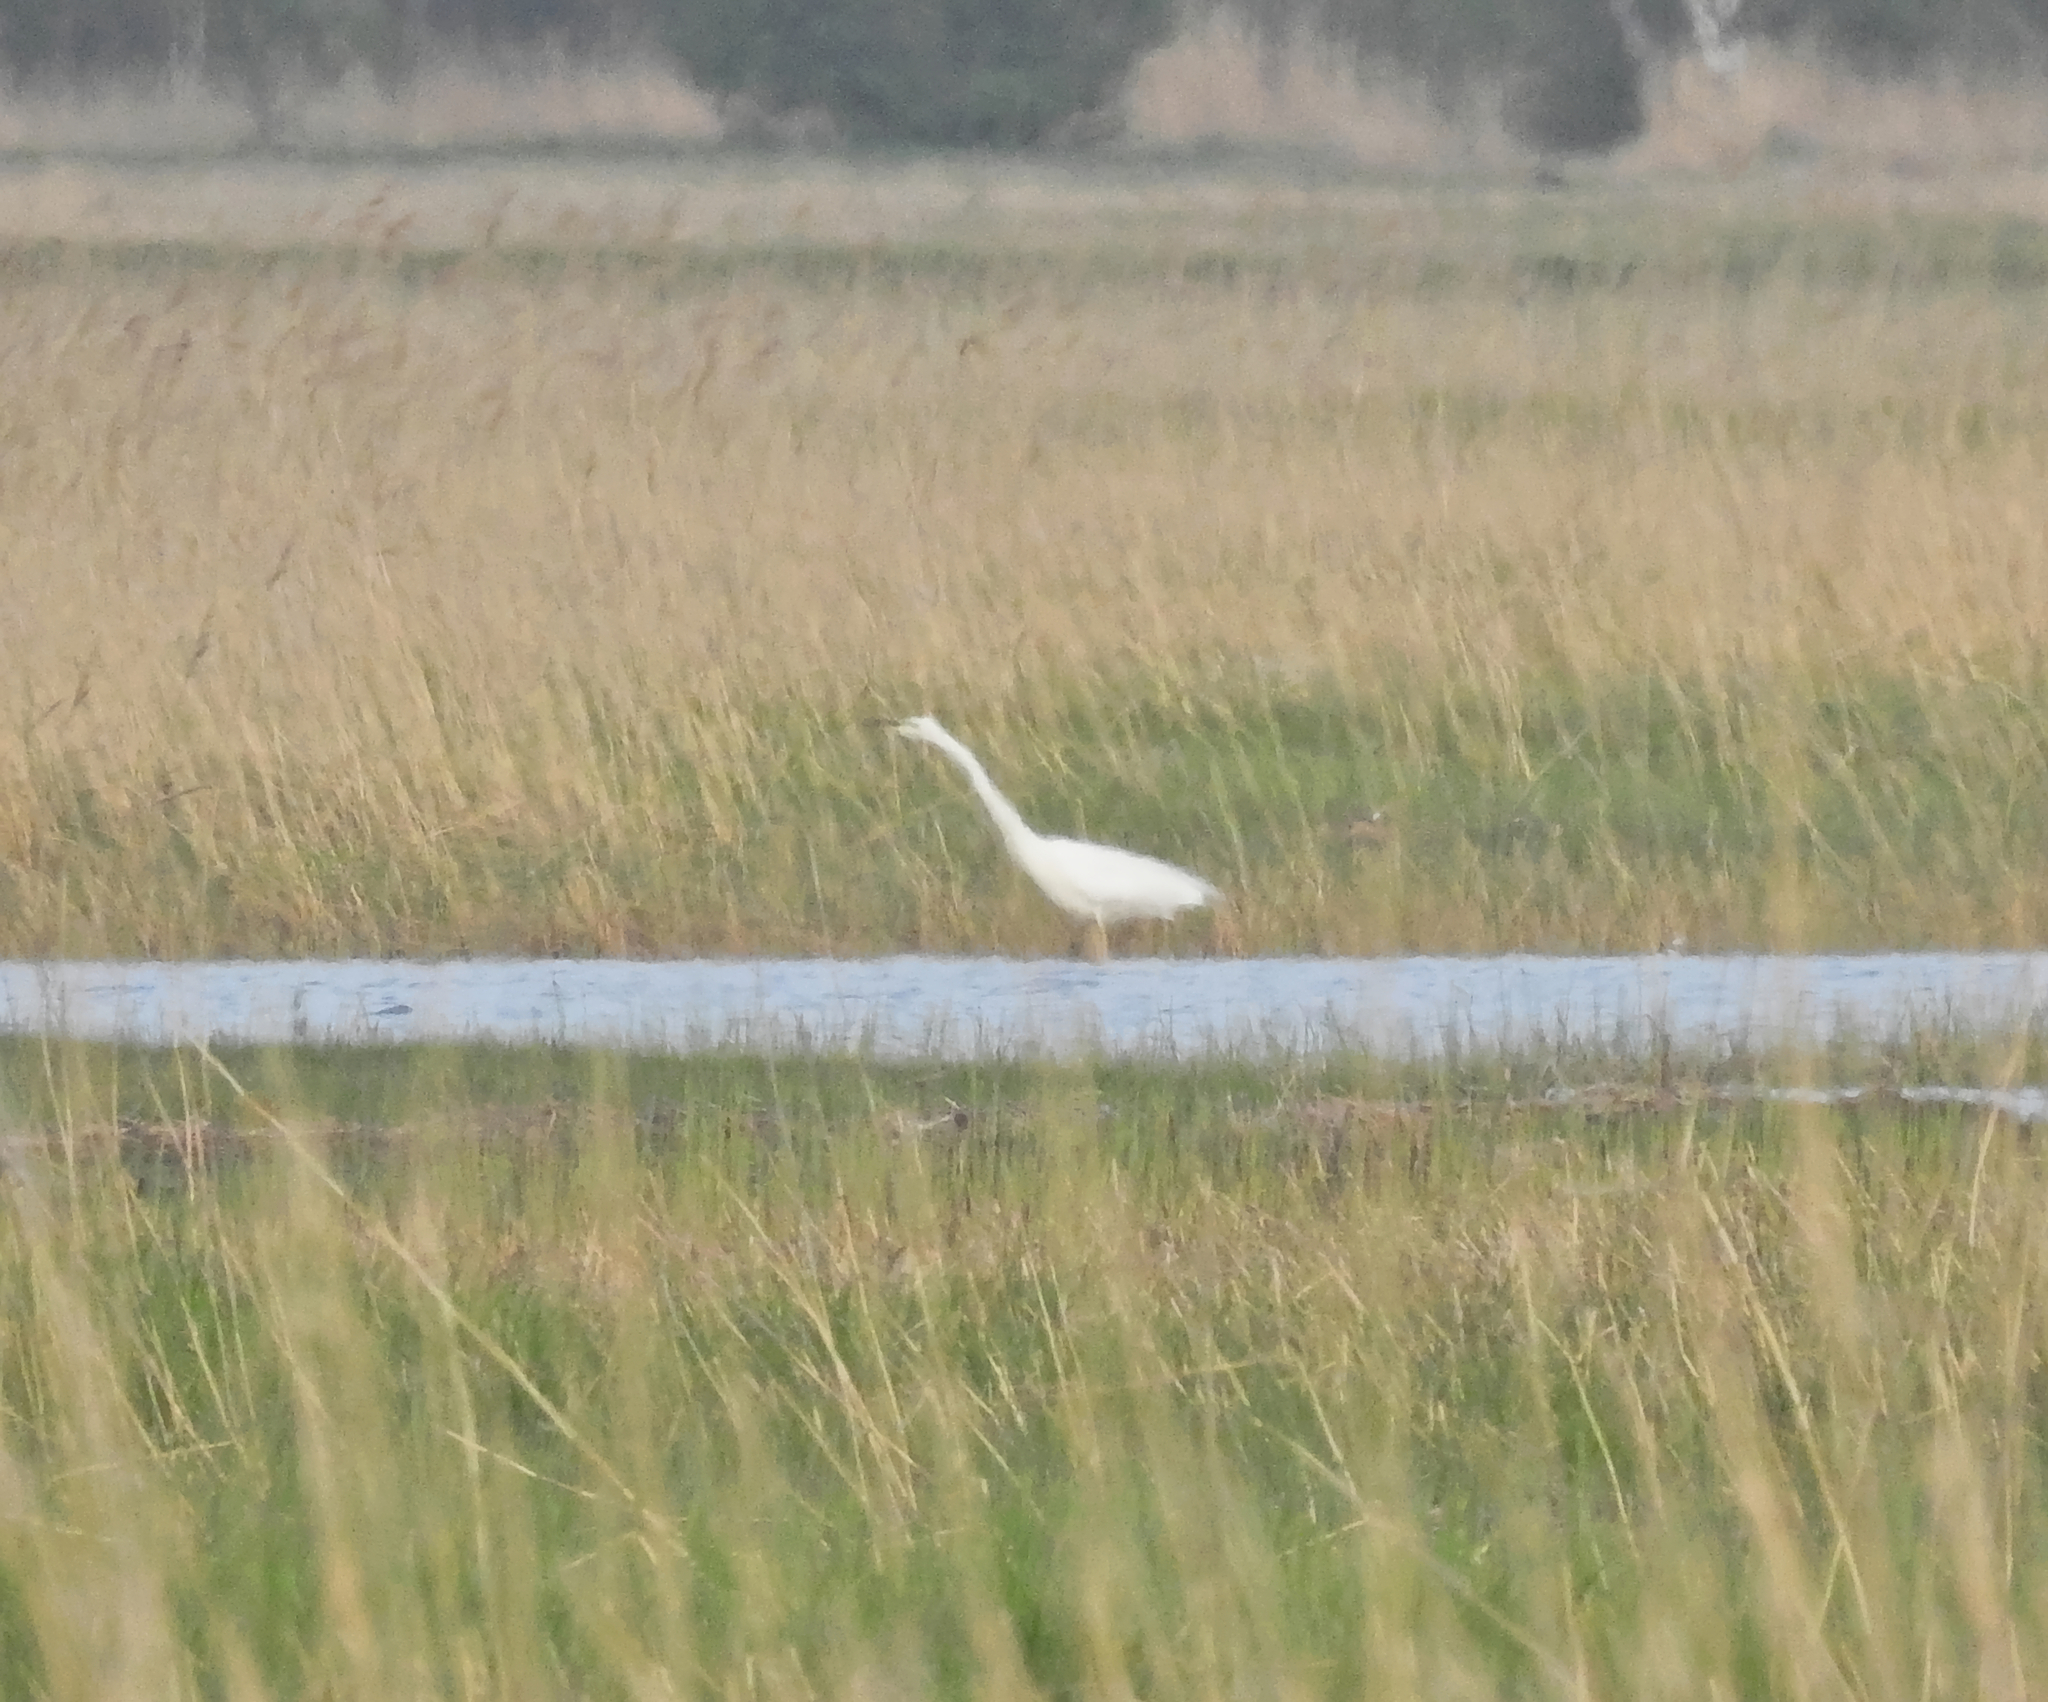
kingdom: Animalia
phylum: Chordata
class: Aves
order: Pelecaniformes
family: Ardeidae
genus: Ardea
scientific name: Ardea alba
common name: Great egret
